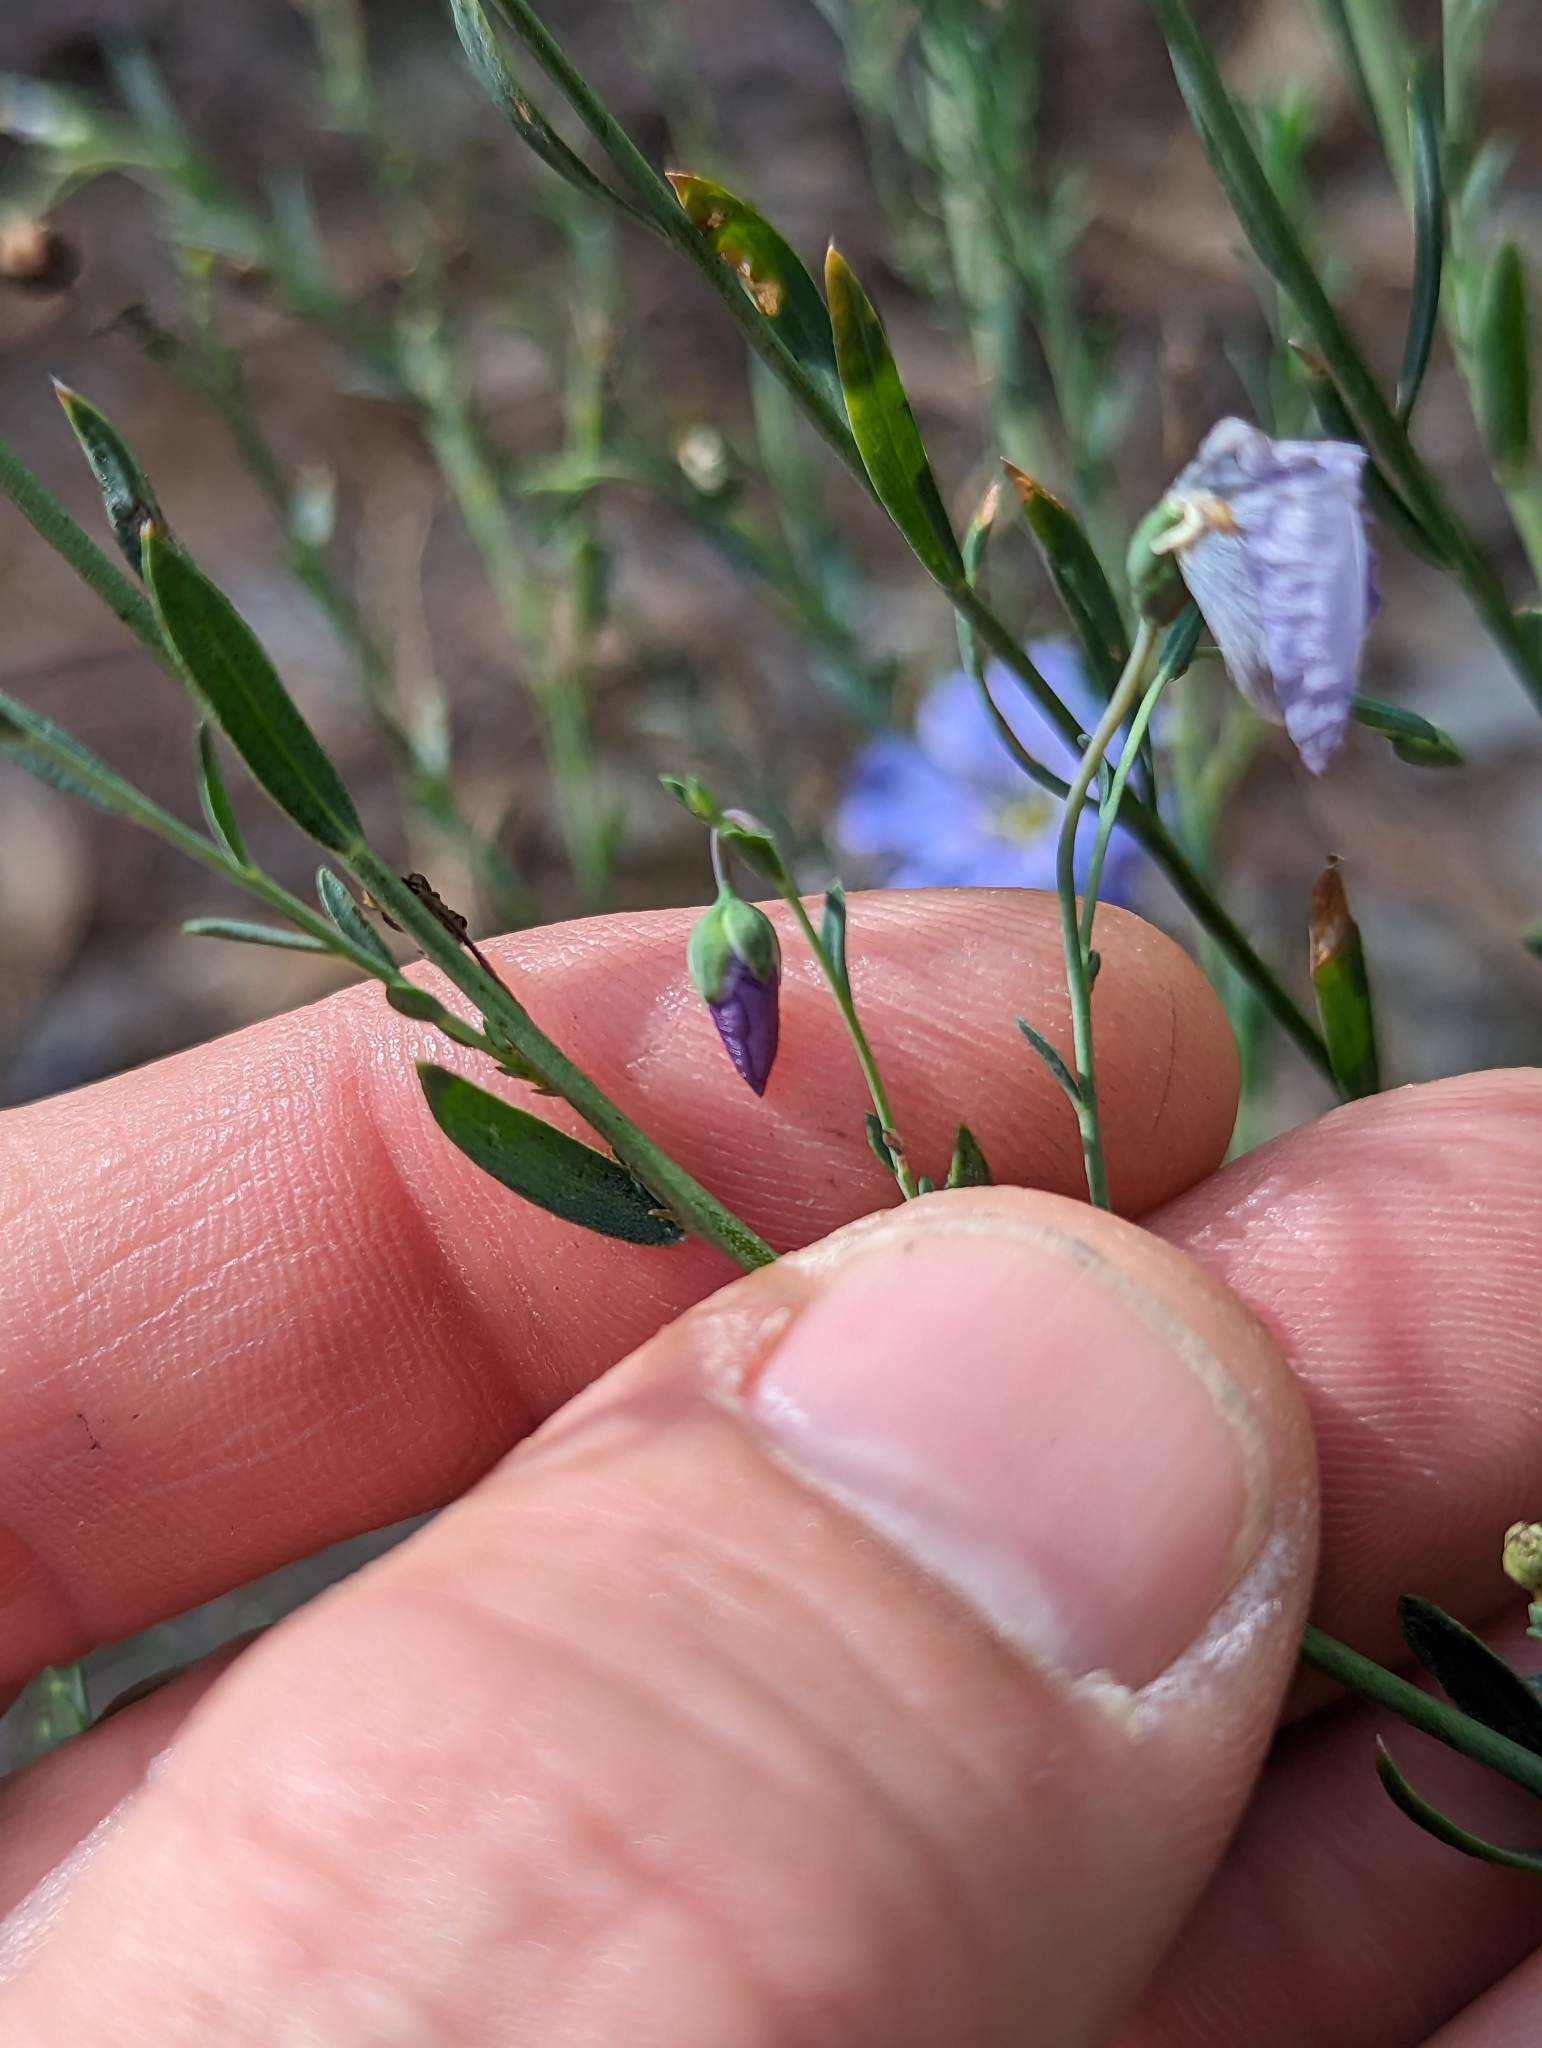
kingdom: Plantae
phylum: Tracheophyta
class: Magnoliopsida
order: Malpighiales
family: Linaceae
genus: Linum
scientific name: Linum lewisii
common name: Prairie flax
